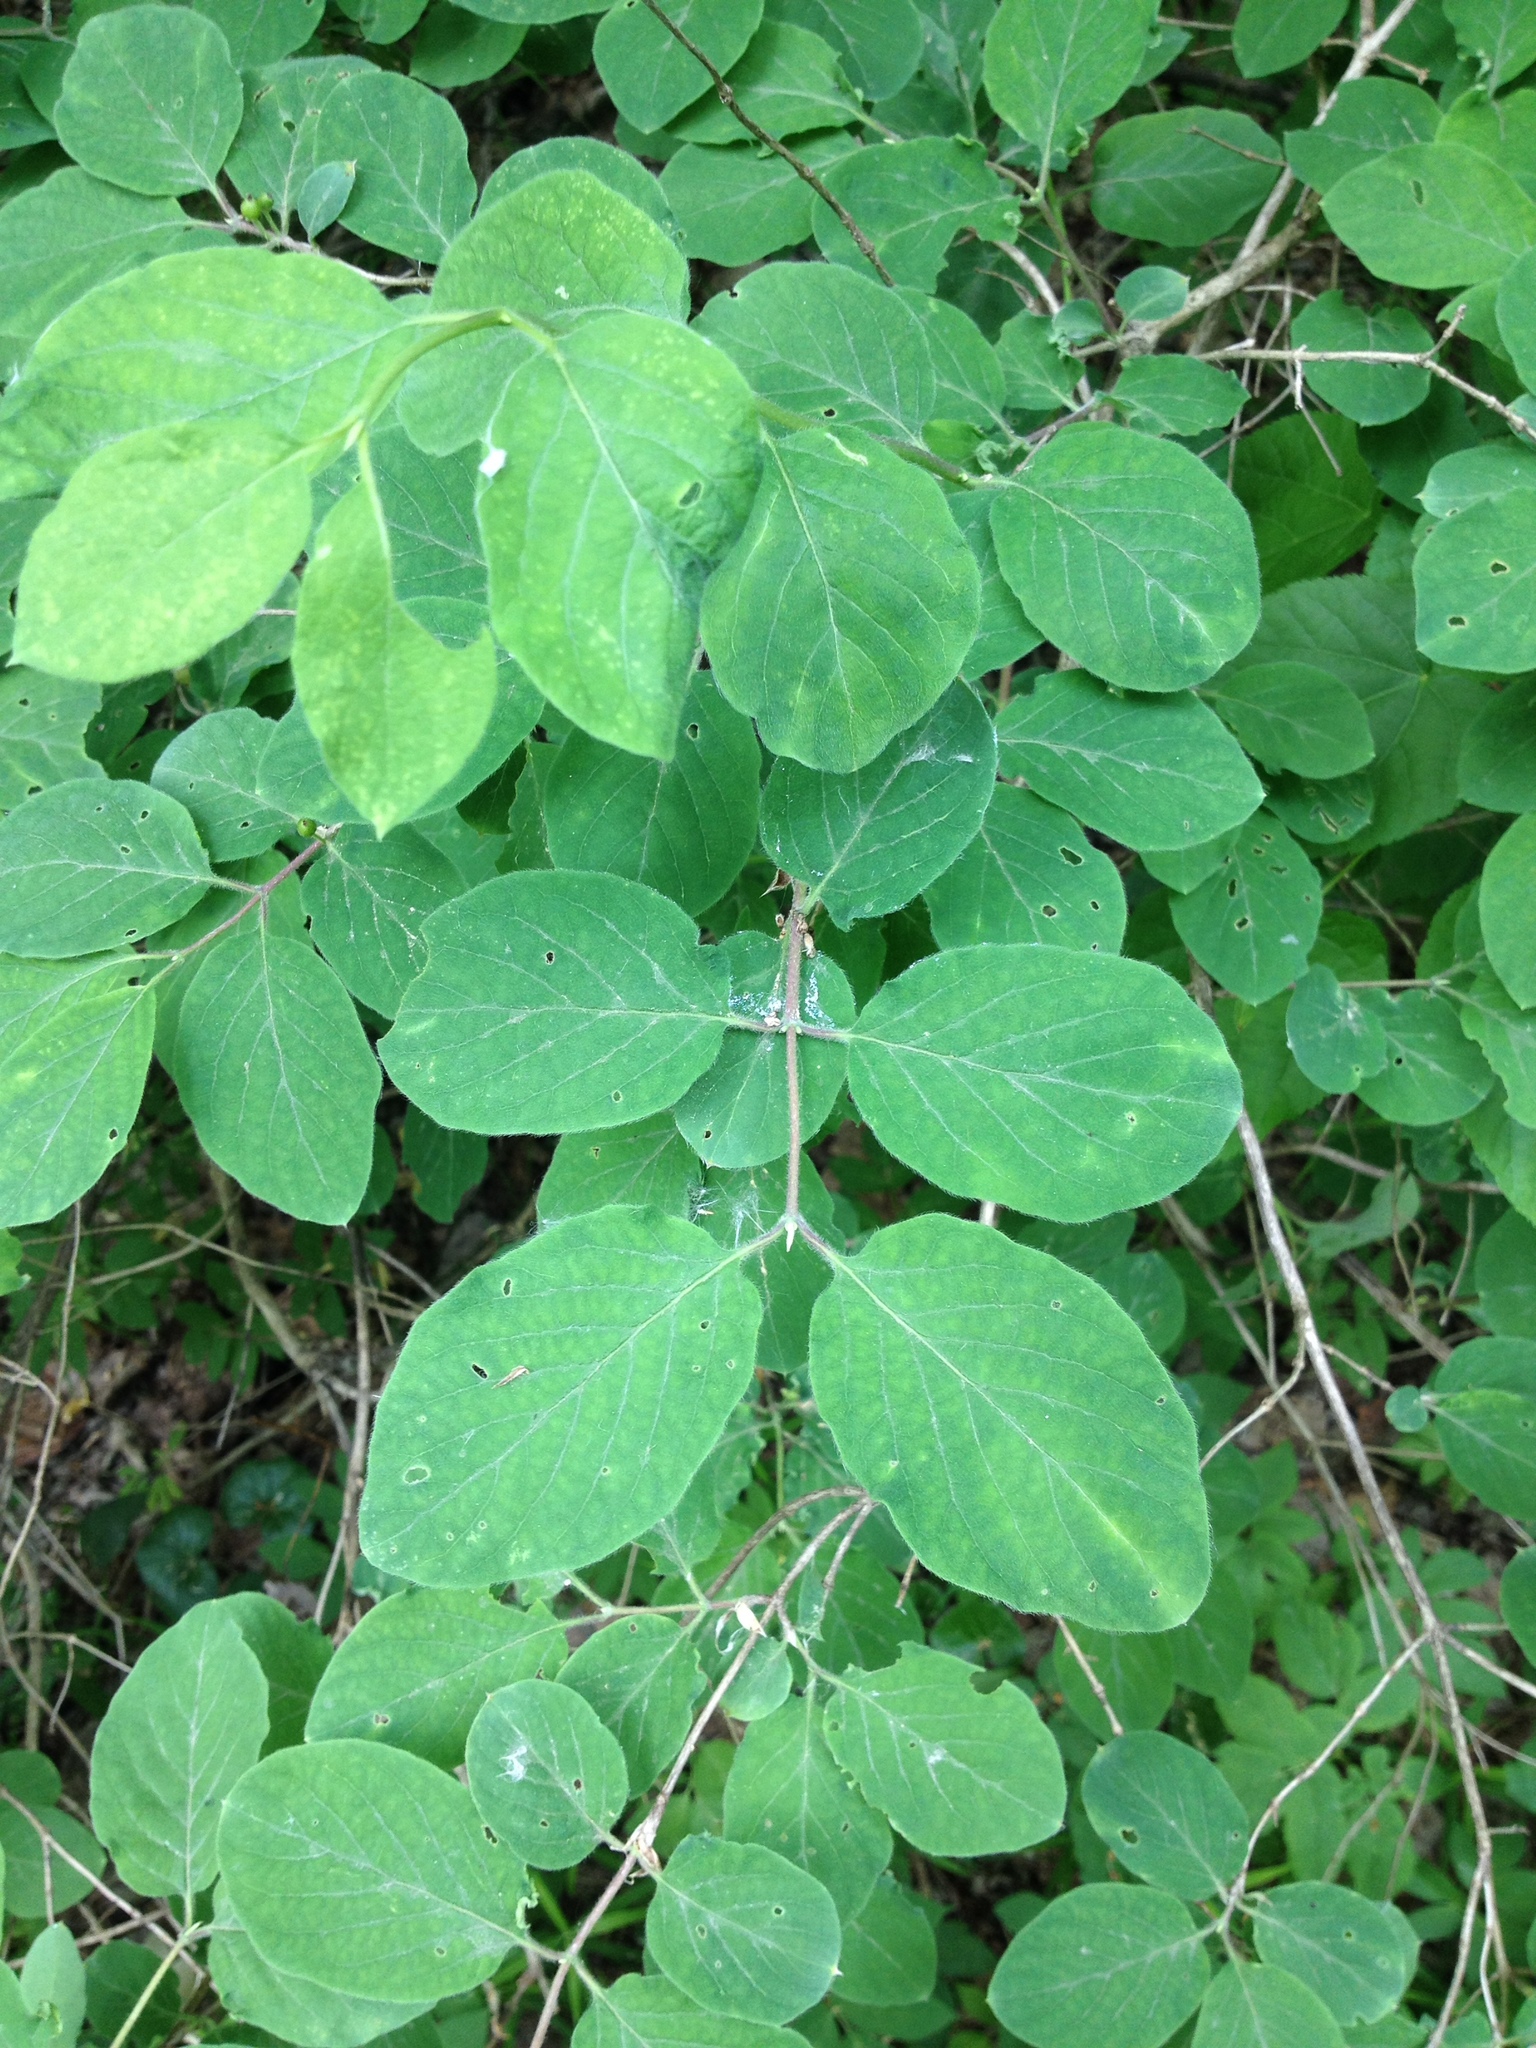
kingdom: Plantae
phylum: Tracheophyta
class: Magnoliopsida
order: Dipsacales
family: Caprifoliaceae
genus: Lonicera
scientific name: Lonicera xylosteum
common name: Fly honeysuckle
